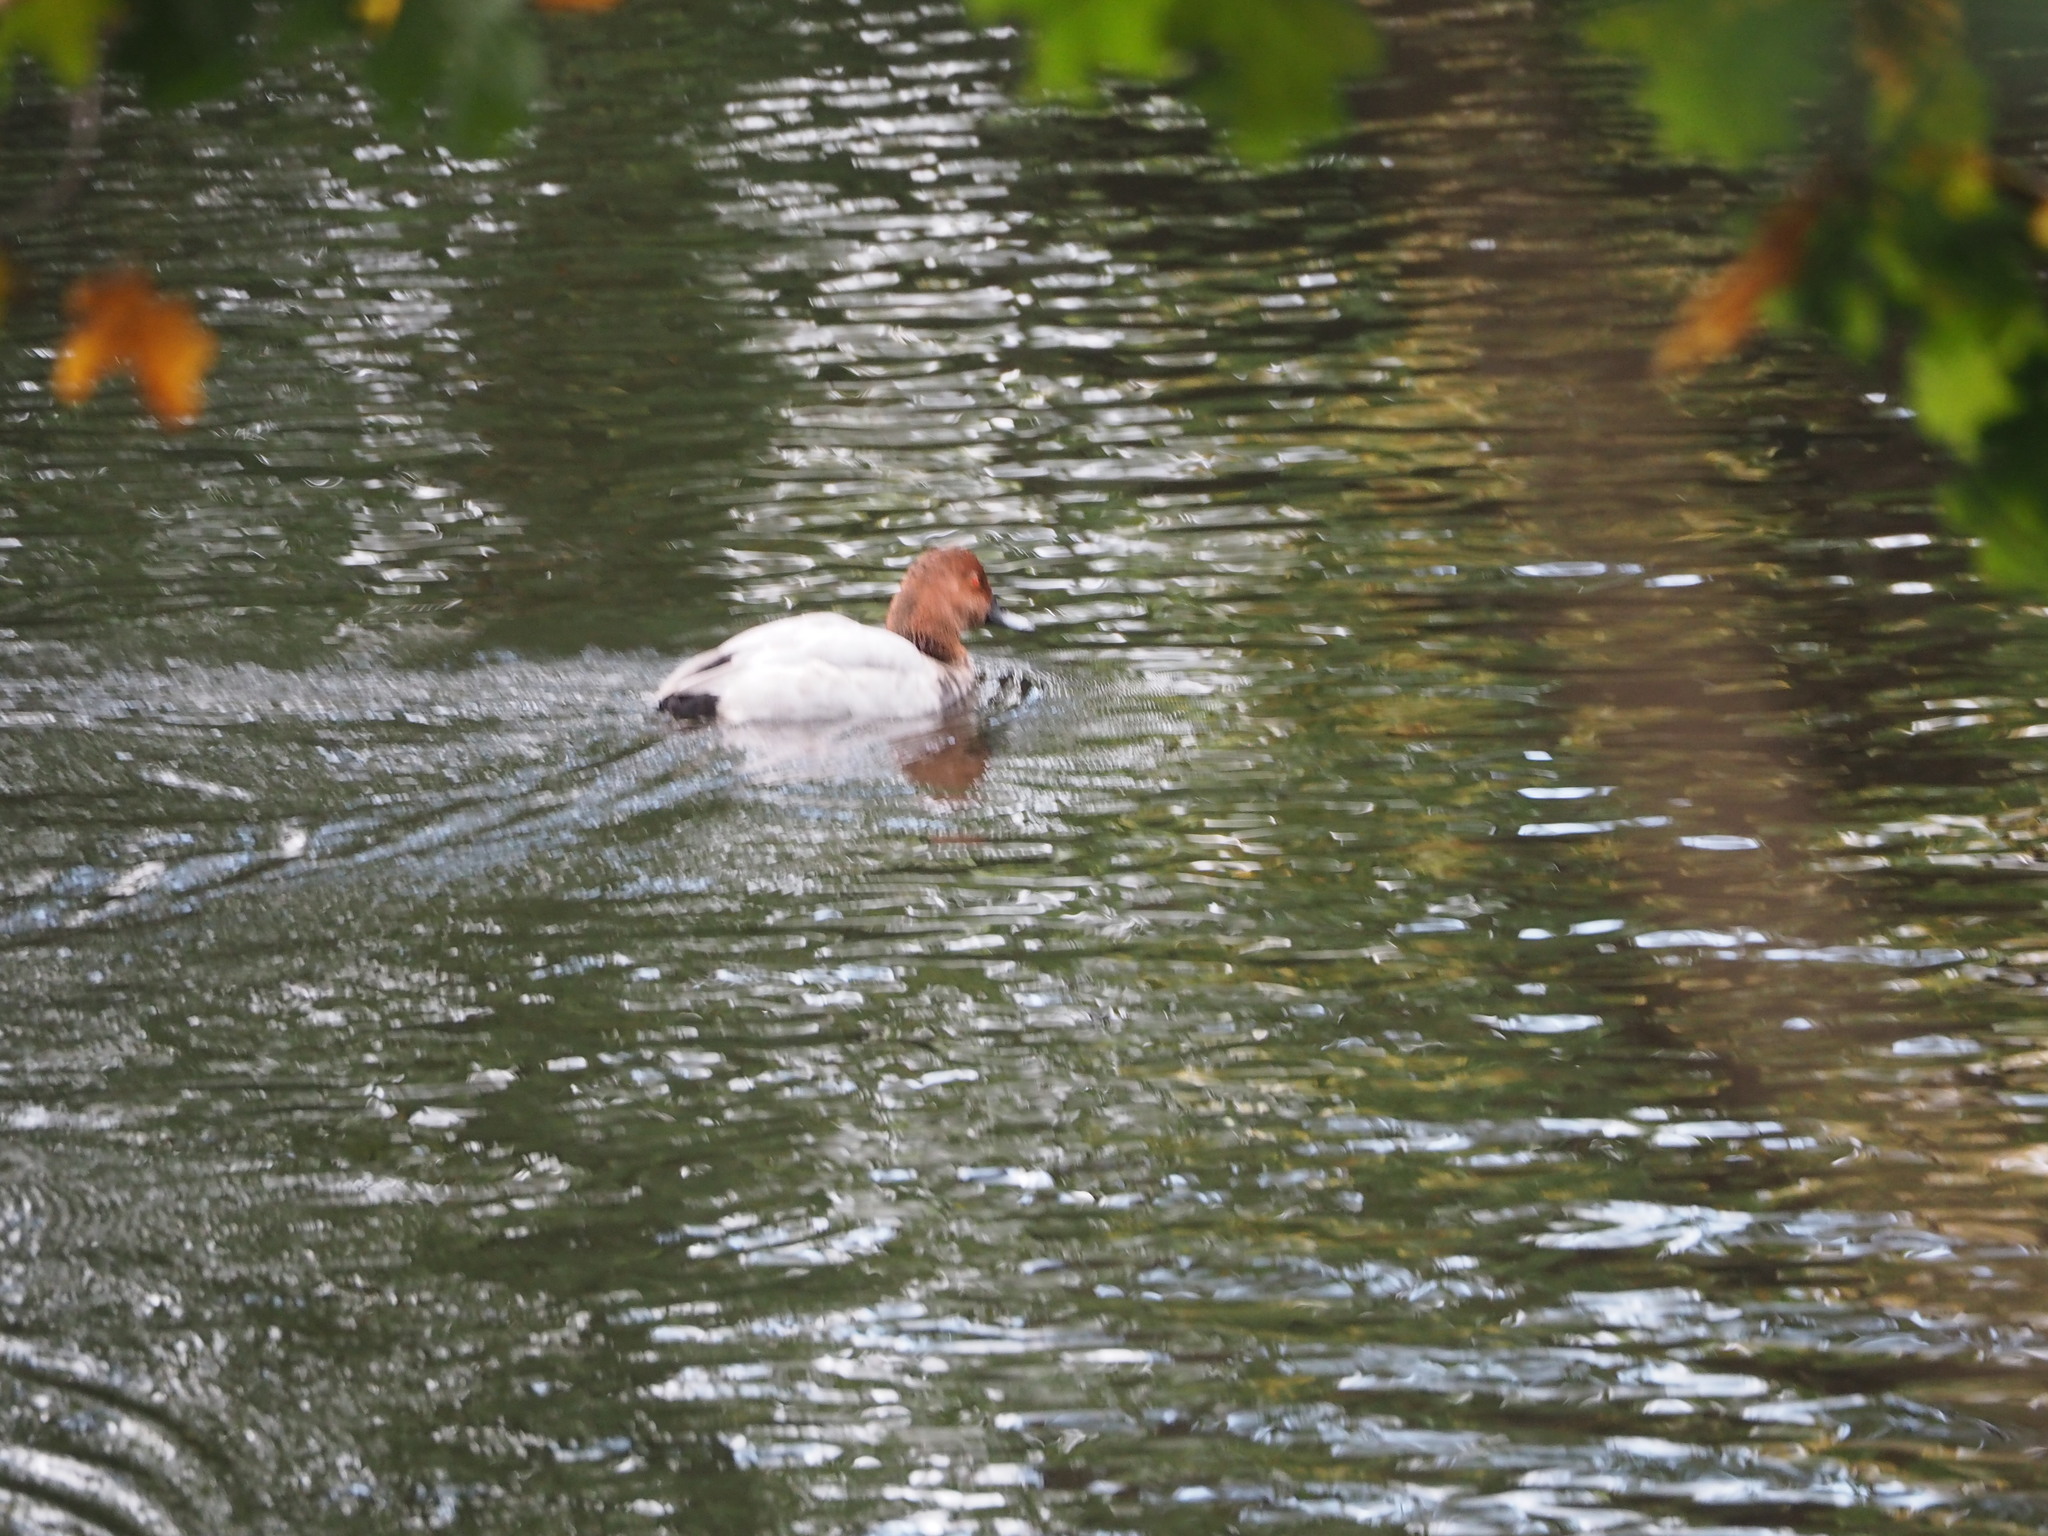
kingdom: Animalia
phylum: Chordata
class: Aves
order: Anseriformes
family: Anatidae
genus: Aythya
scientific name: Aythya ferina
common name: Common pochard
